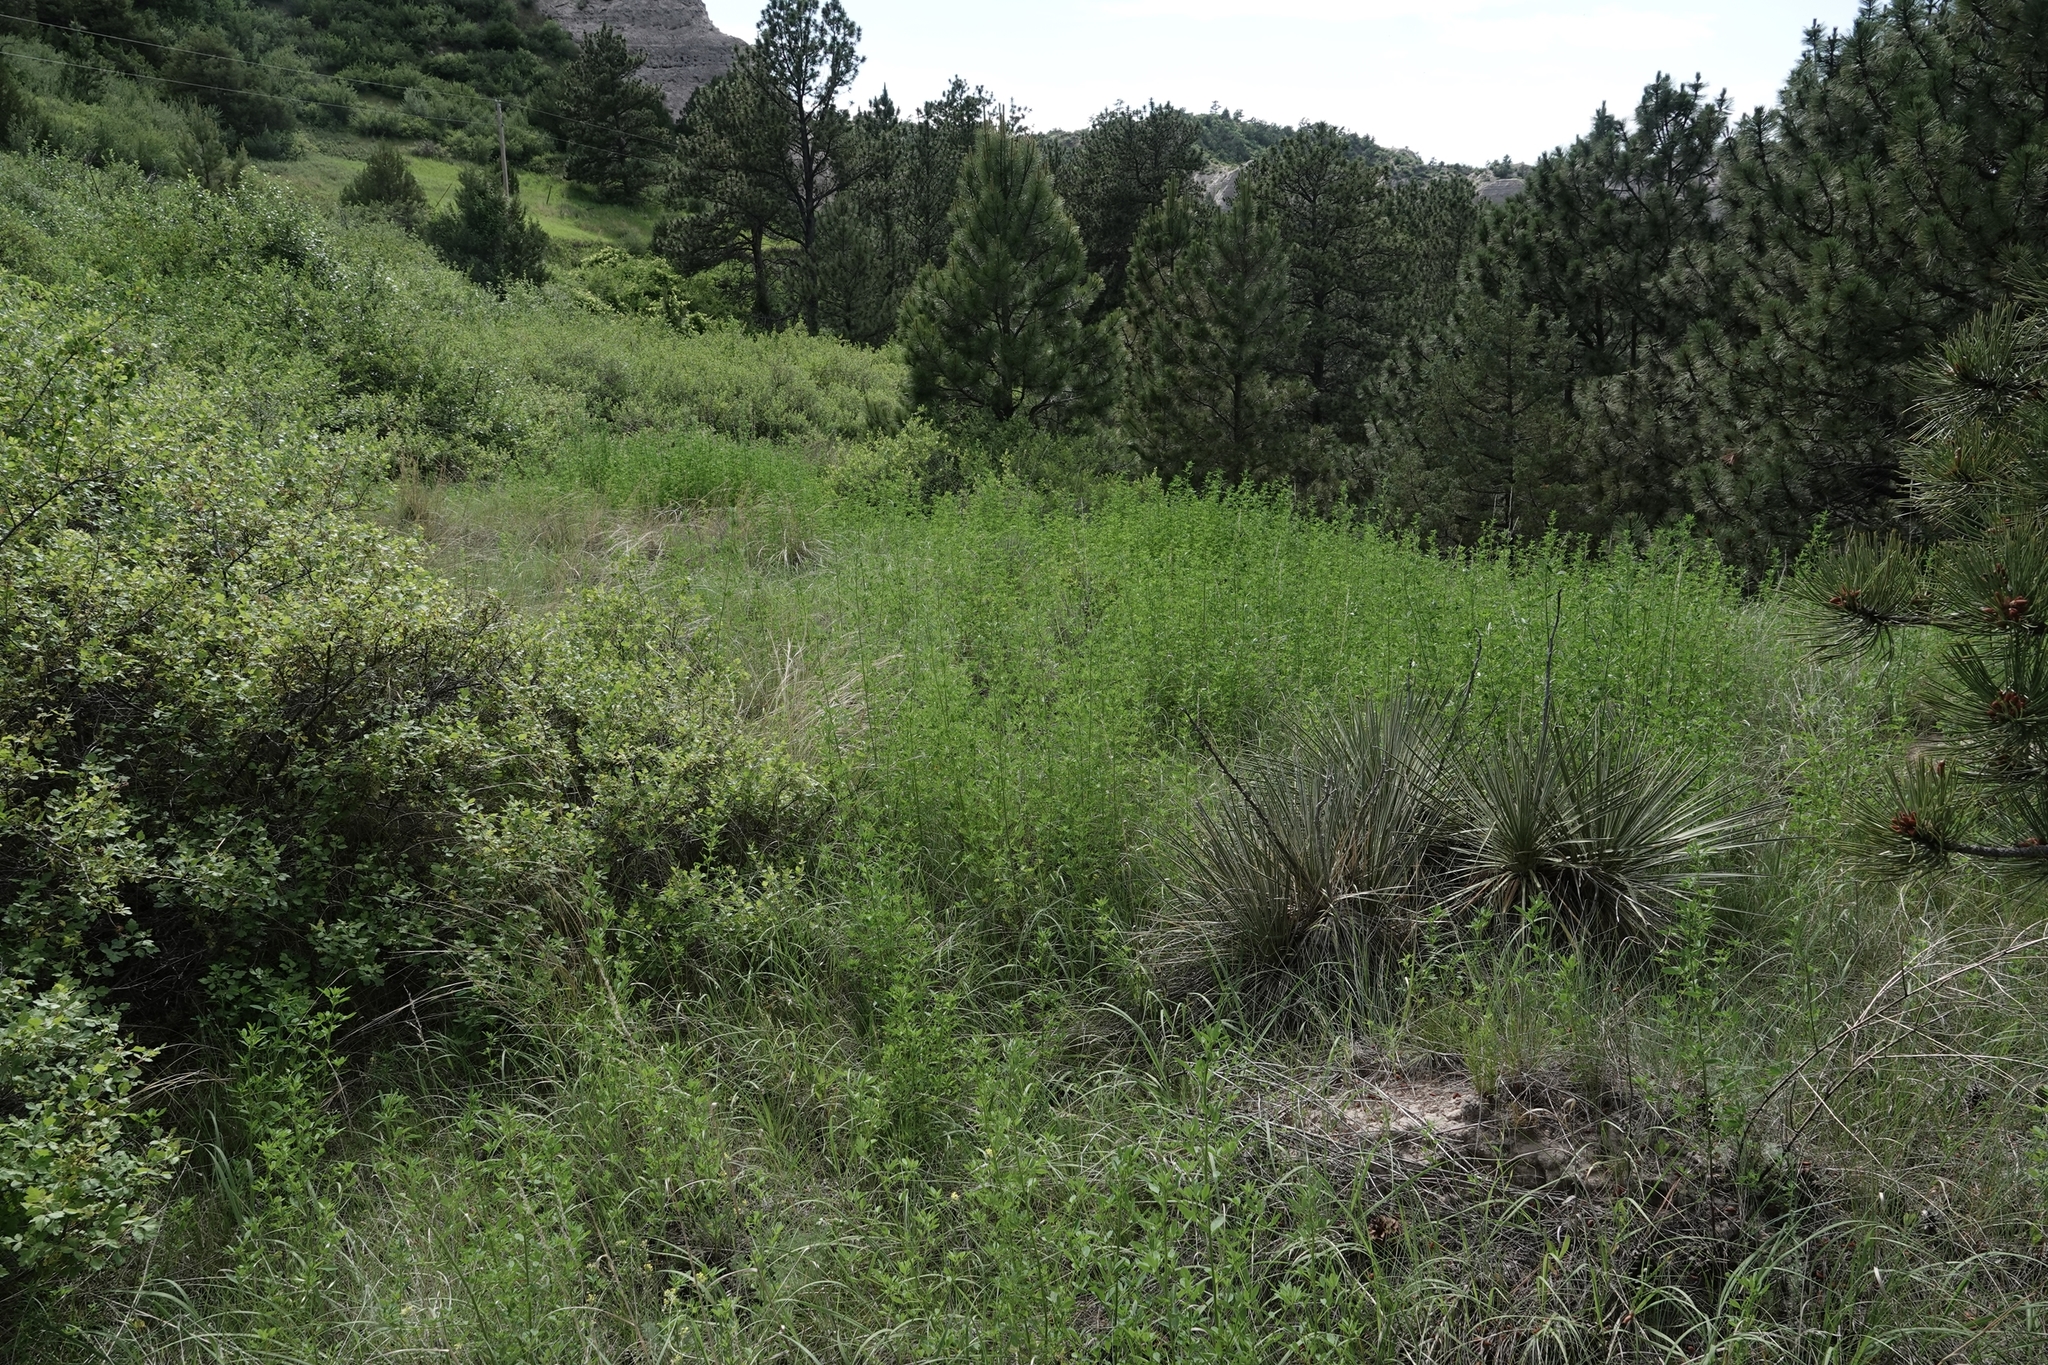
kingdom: Plantae
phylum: Tracheophyta
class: Magnoliopsida
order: Fabales
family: Fabaceae
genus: Melilotus
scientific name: Melilotus officinalis
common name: Sweetclover
